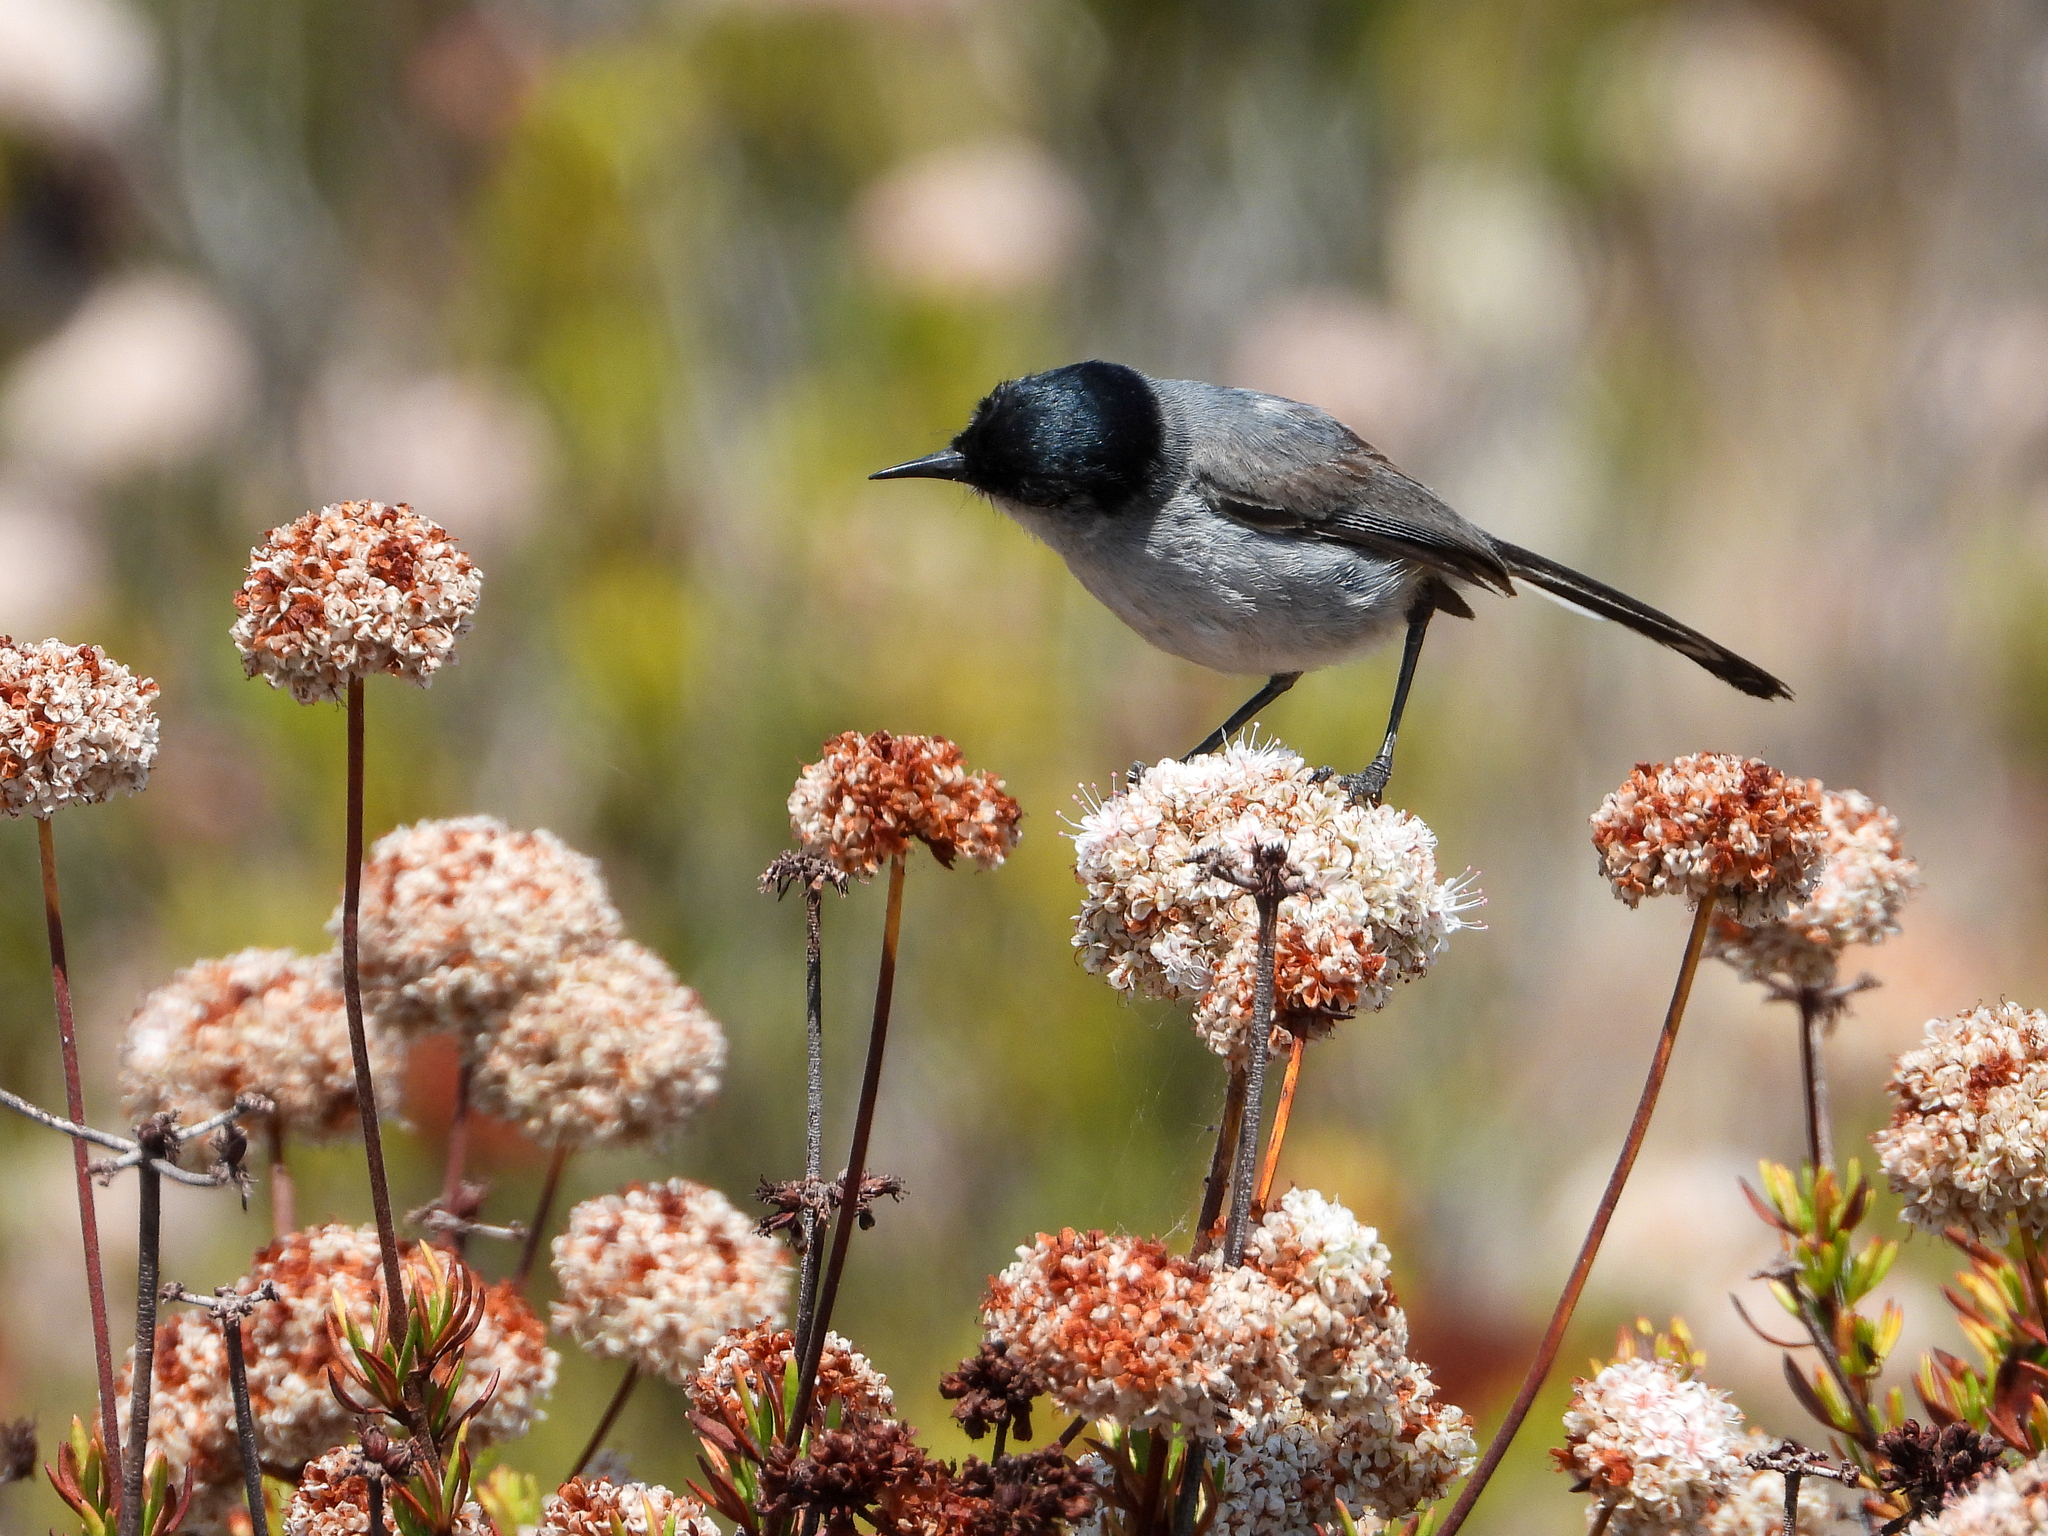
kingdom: Animalia
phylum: Chordata
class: Aves
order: Passeriformes
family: Polioptilidae
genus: Polioptila
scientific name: Polioptila californica
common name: California gnatcatcher
